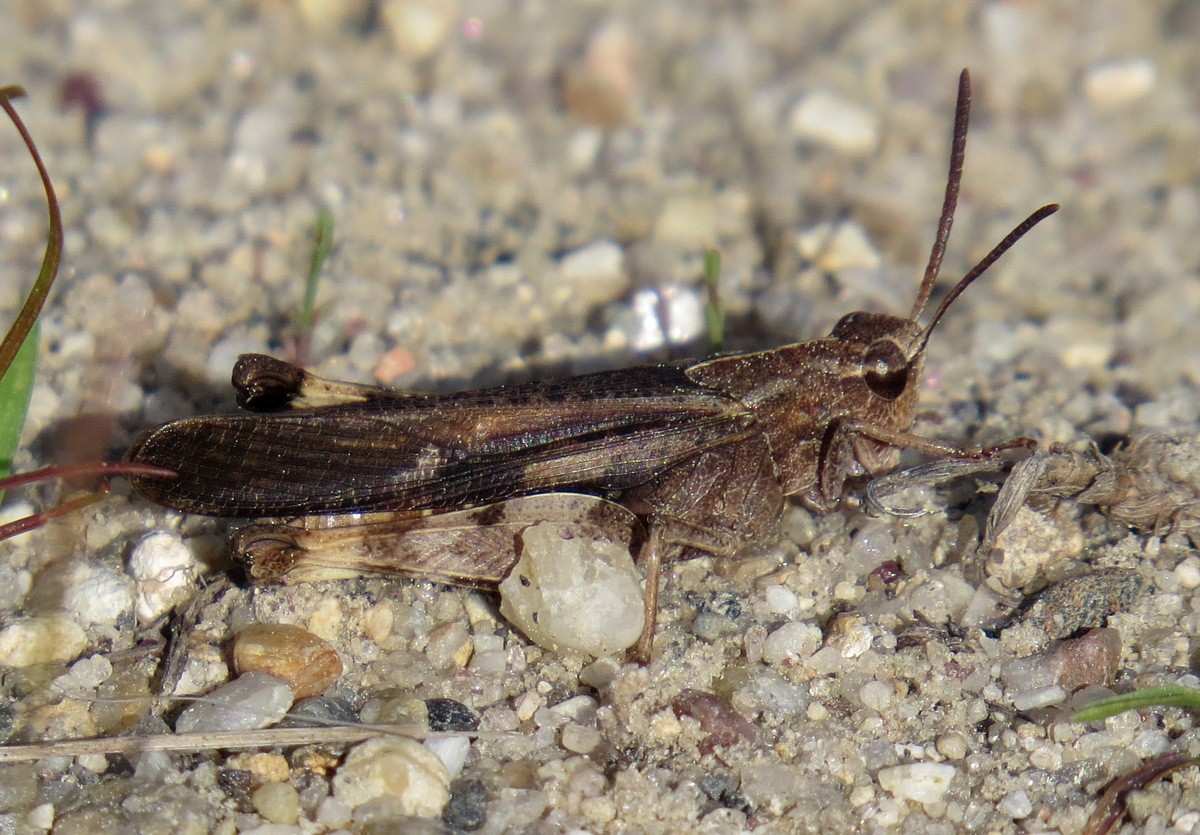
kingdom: Animalia
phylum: Arthropoda
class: Insecta
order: Orthoptera
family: Acrididae
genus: Chortophaga
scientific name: Chortophaga viridifasciata
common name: Green-striped grasshopper
